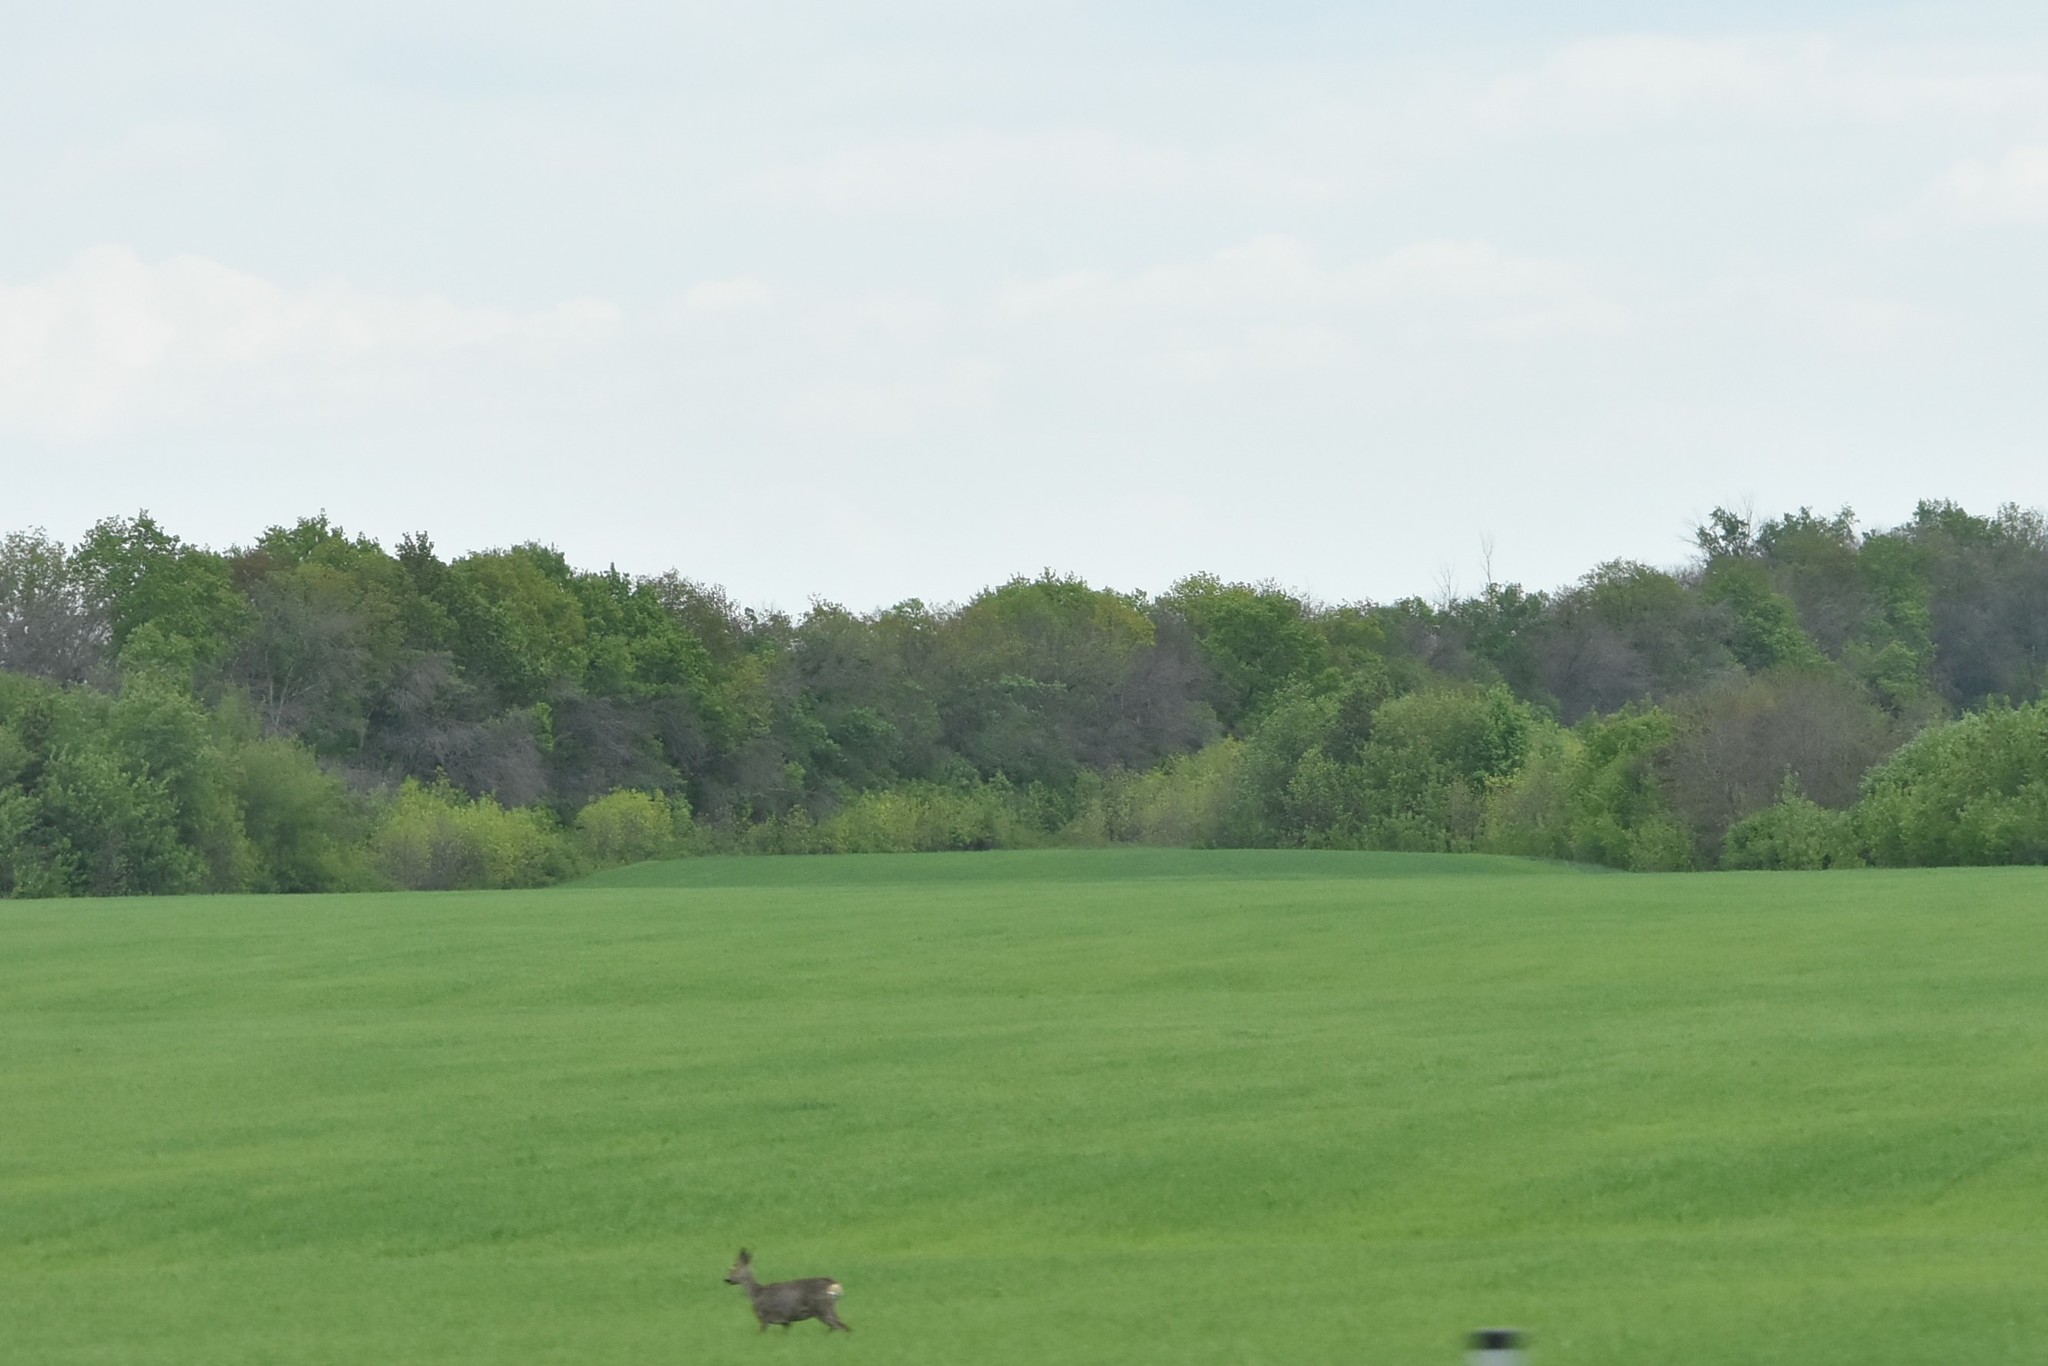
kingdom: Animalia
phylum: Chordata
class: Mammalia
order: Artiodactyla
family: Cervidae
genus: Capreolus
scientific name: Capreolus capreolus
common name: Western roe deer
